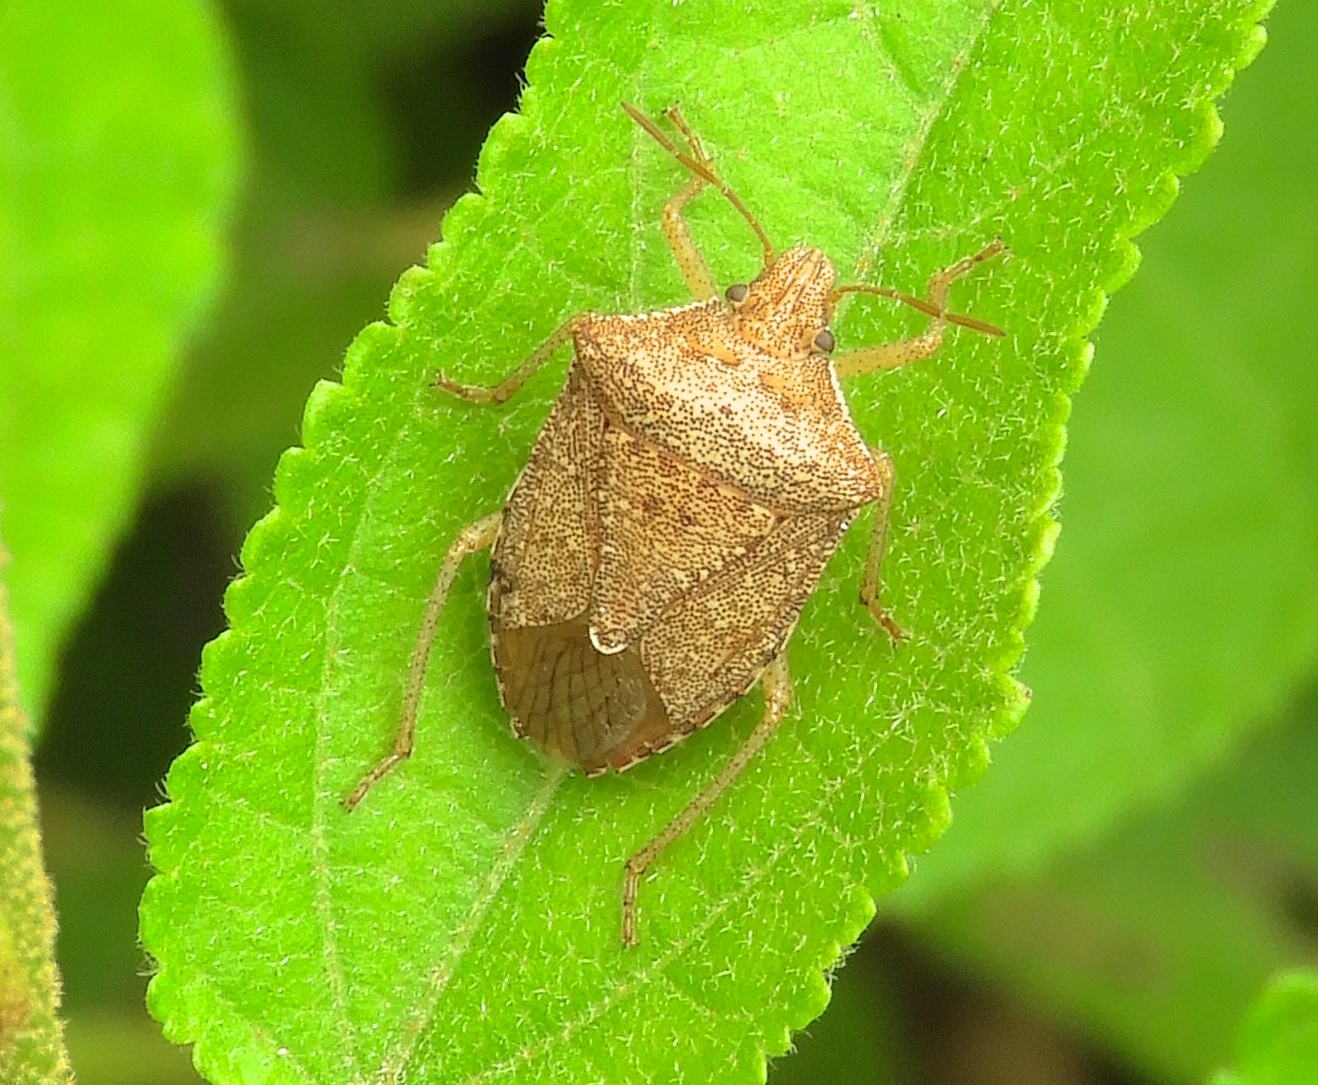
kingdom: Animalia
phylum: Arthropoda
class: Insecta
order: Hemiptera
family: Pentatomidae
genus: Euschistus
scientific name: Euschistus
